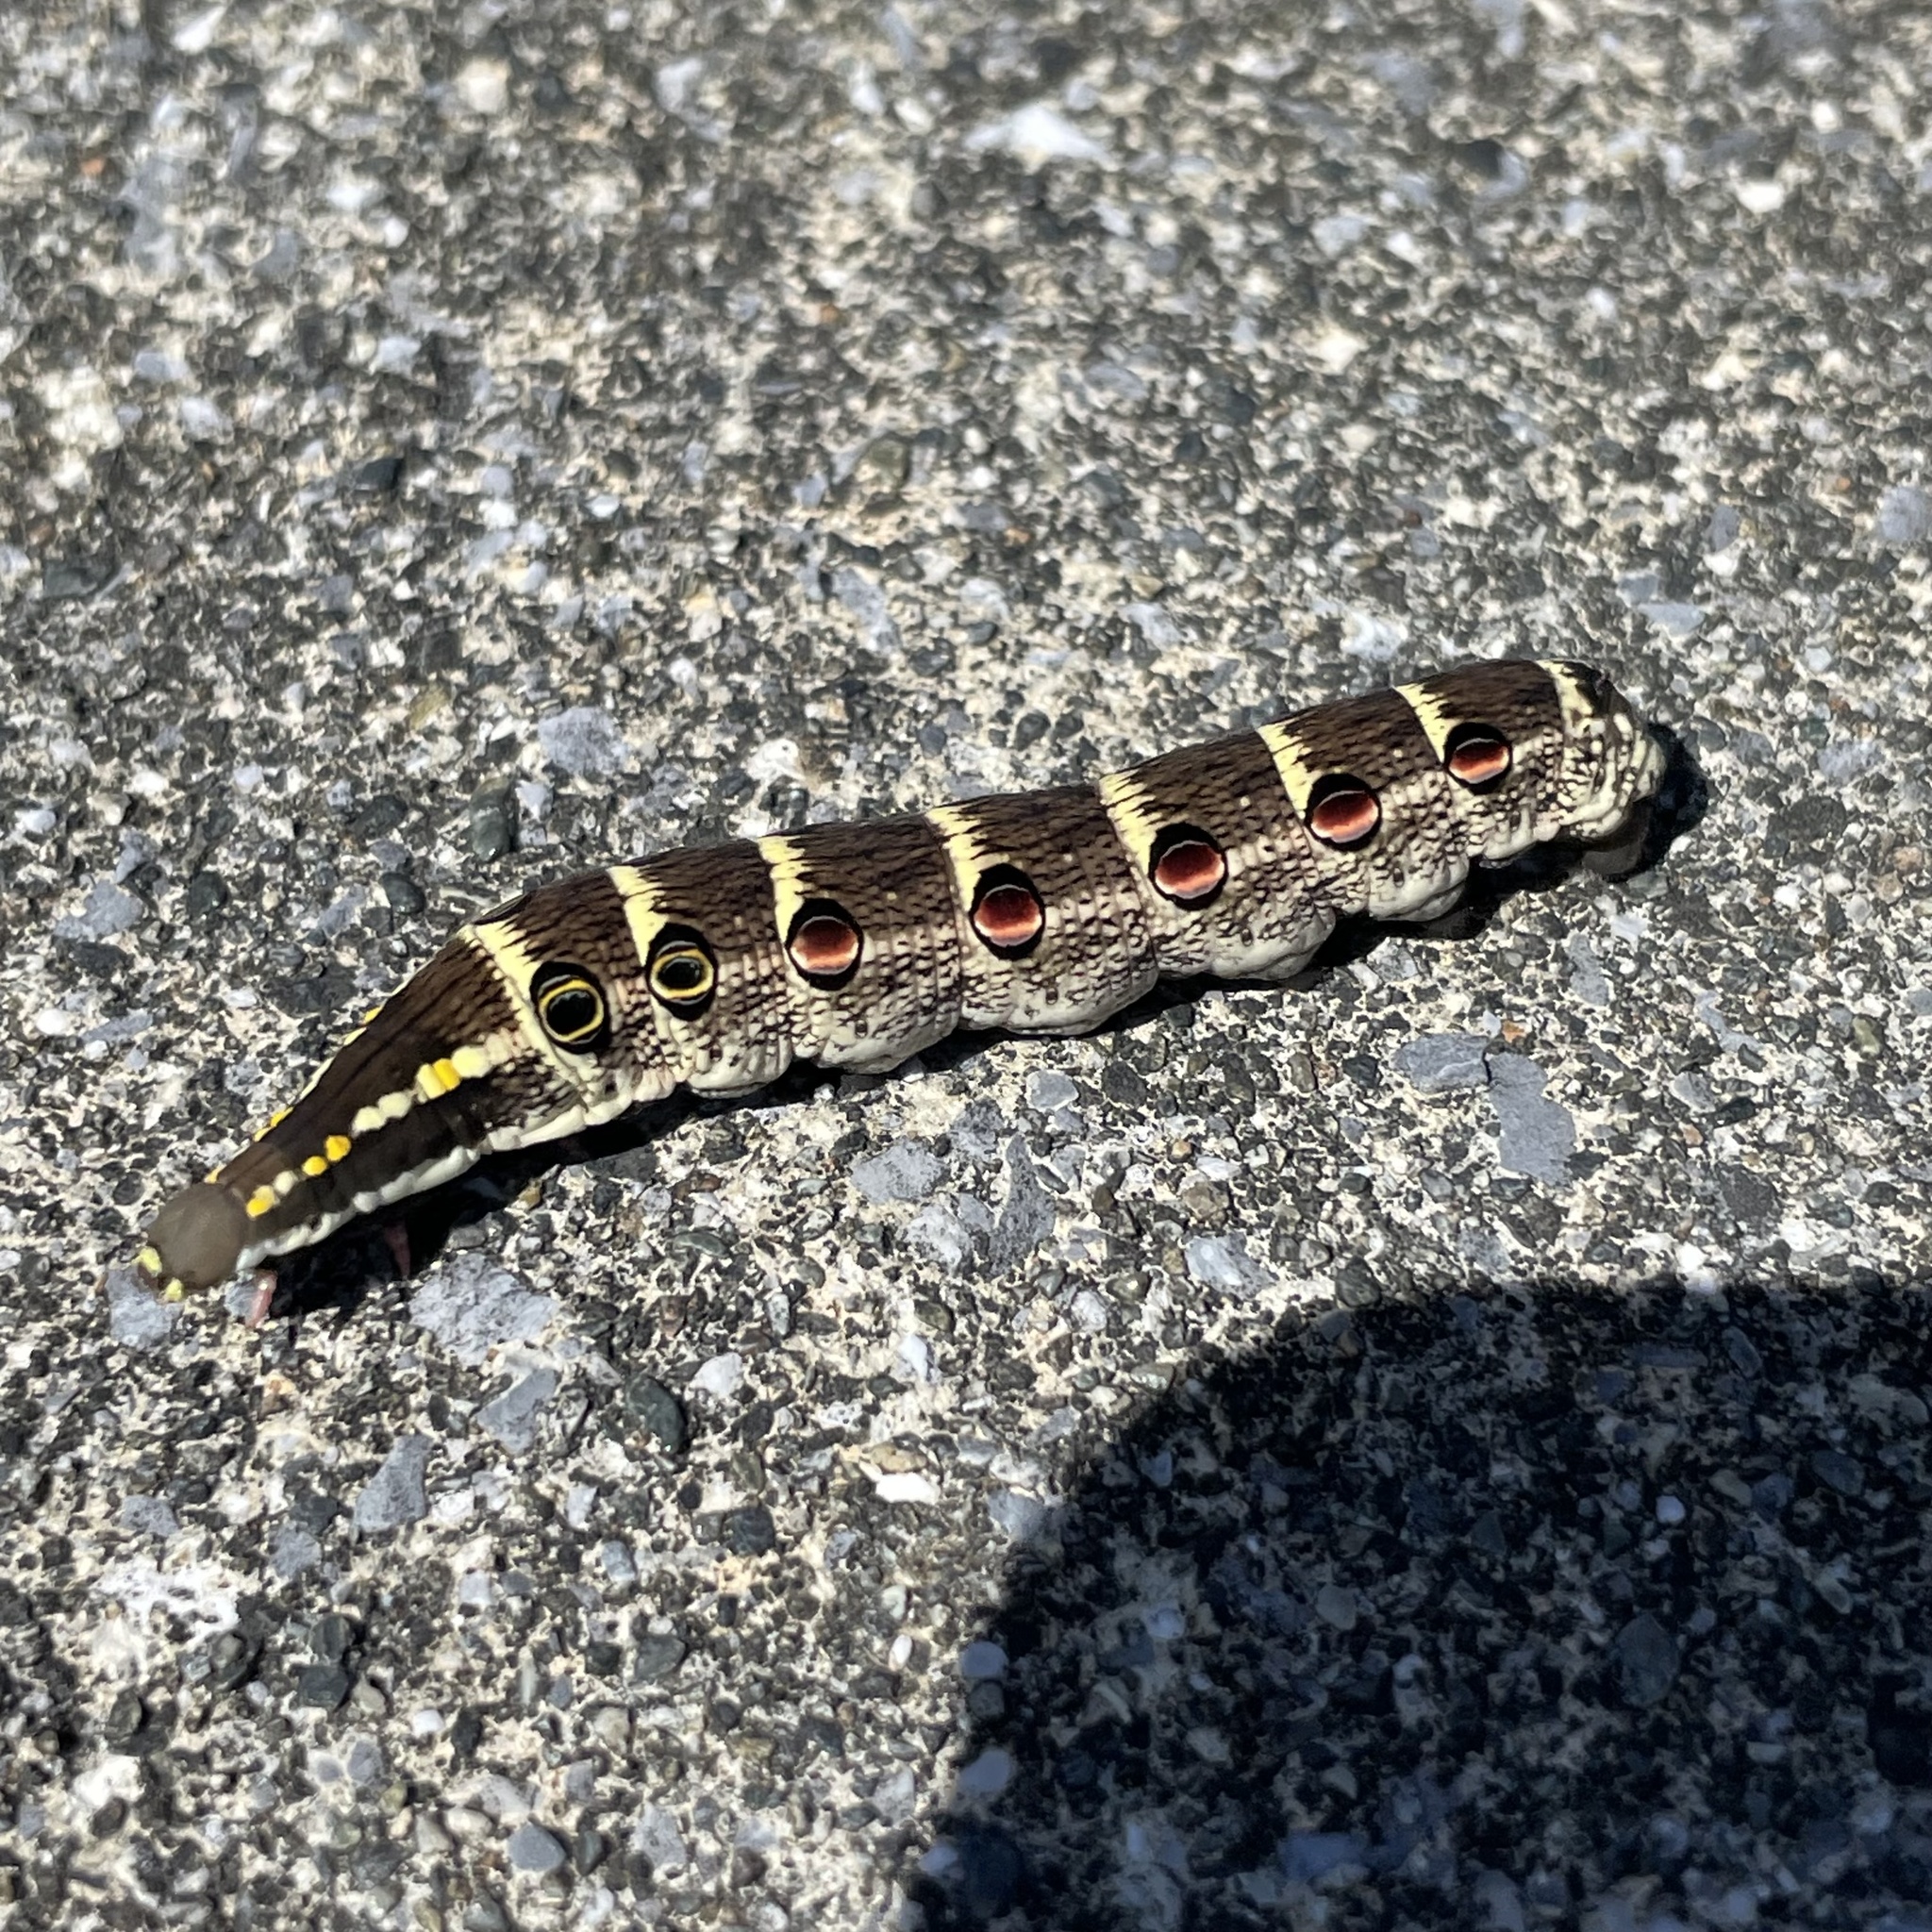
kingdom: Animalia
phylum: Arthropoda
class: Insecta
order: Lepidoptera
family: Sphingidae
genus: Theretra
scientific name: Theretra oldenlandiae
